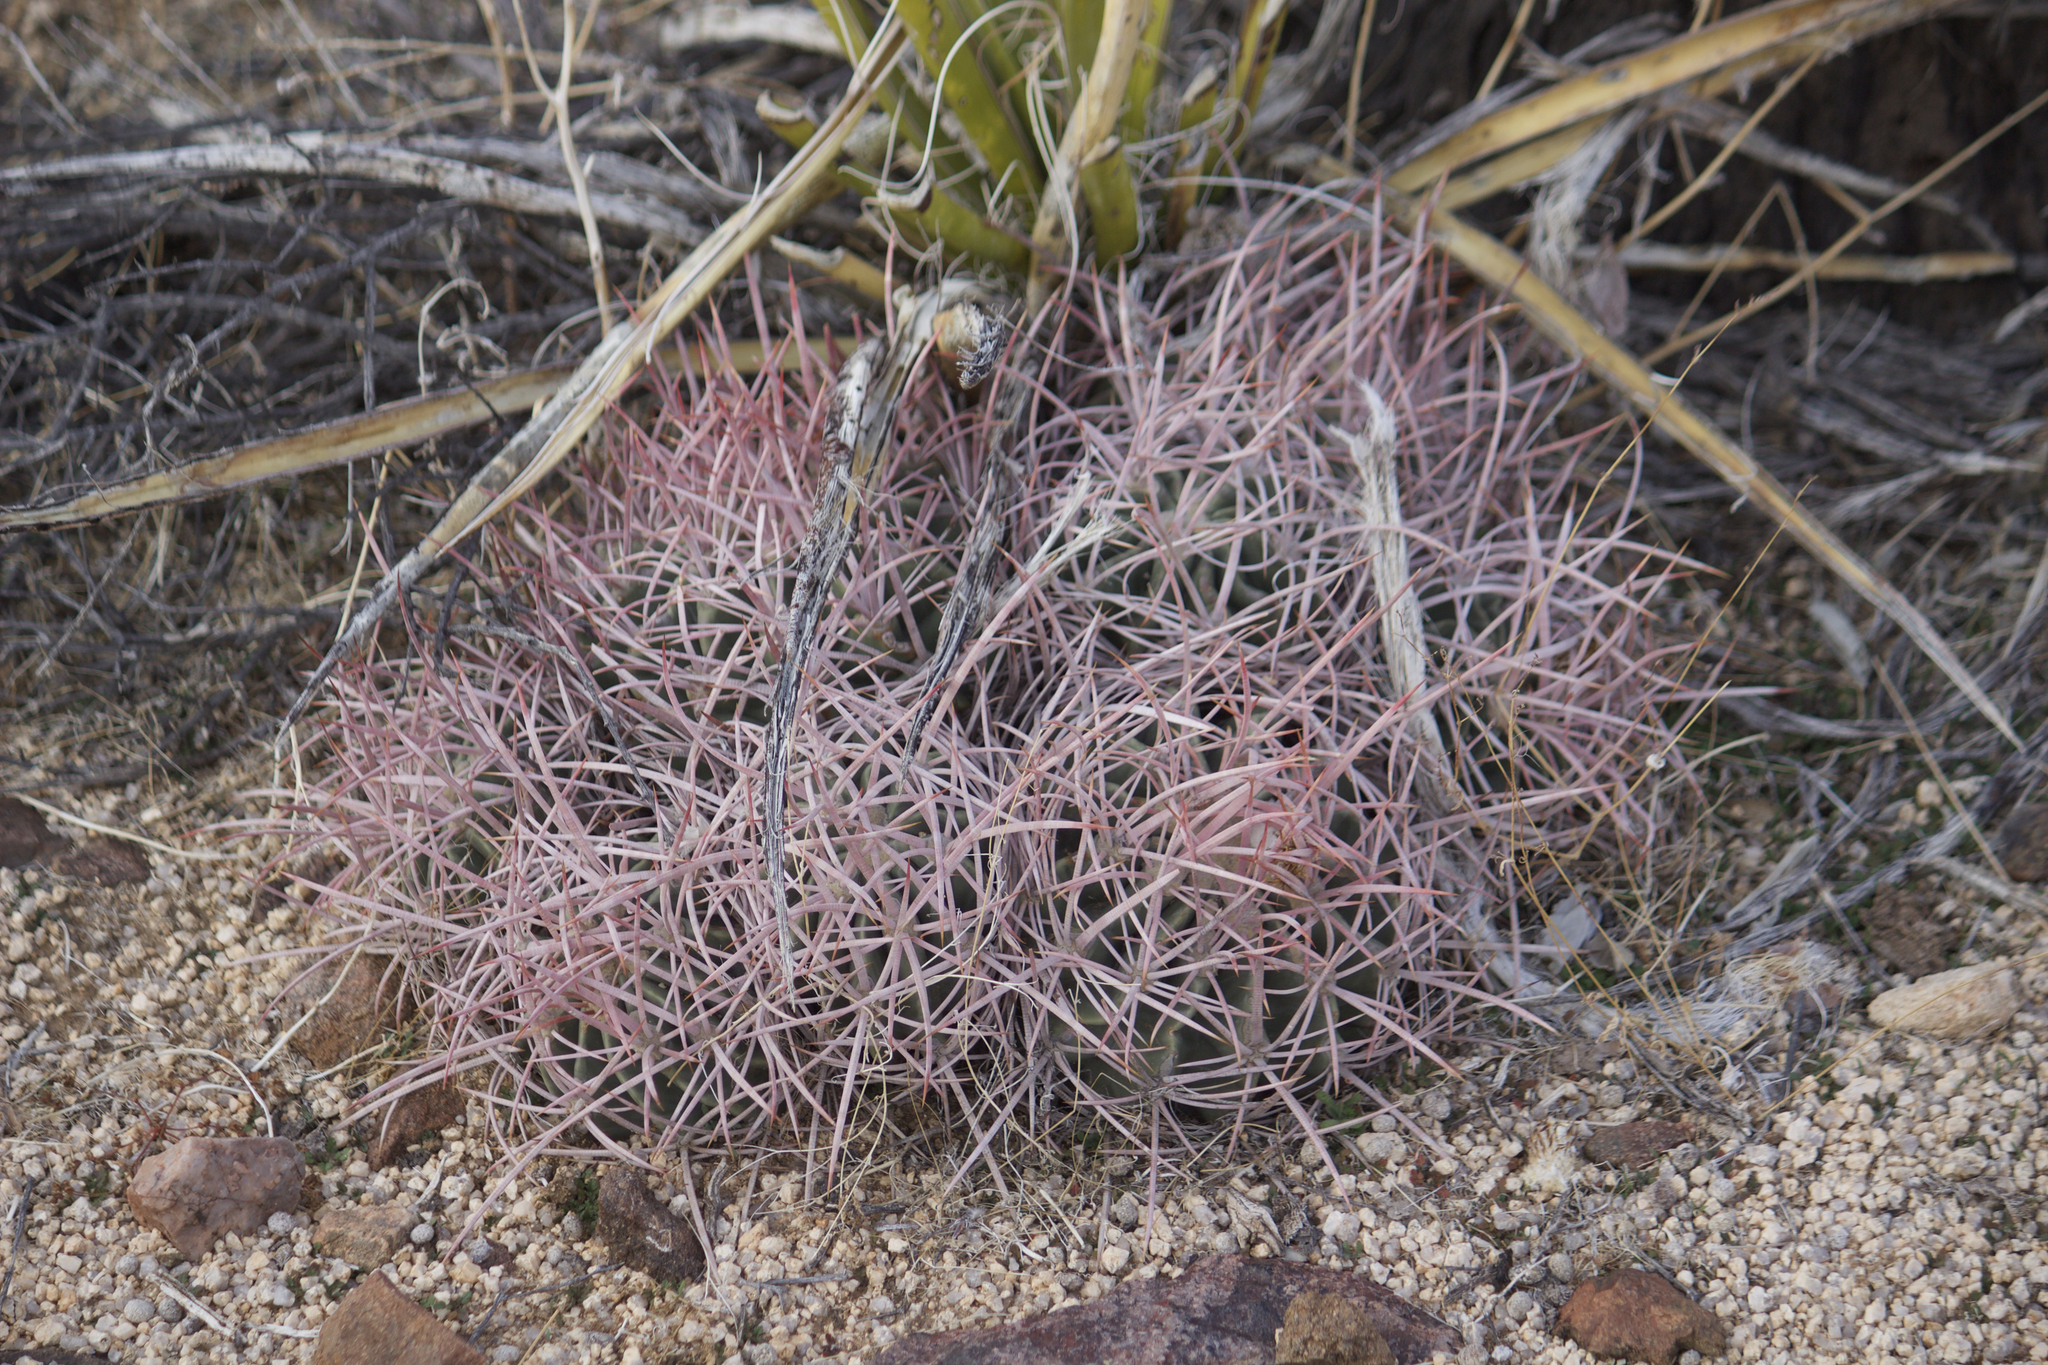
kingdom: Plantae
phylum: Tracheophyta
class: Magnoliopsida
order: Caryophyllales
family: Cactaceae
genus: Echinocactus
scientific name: Echinocactus polycephalus
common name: Cottontop cactus
